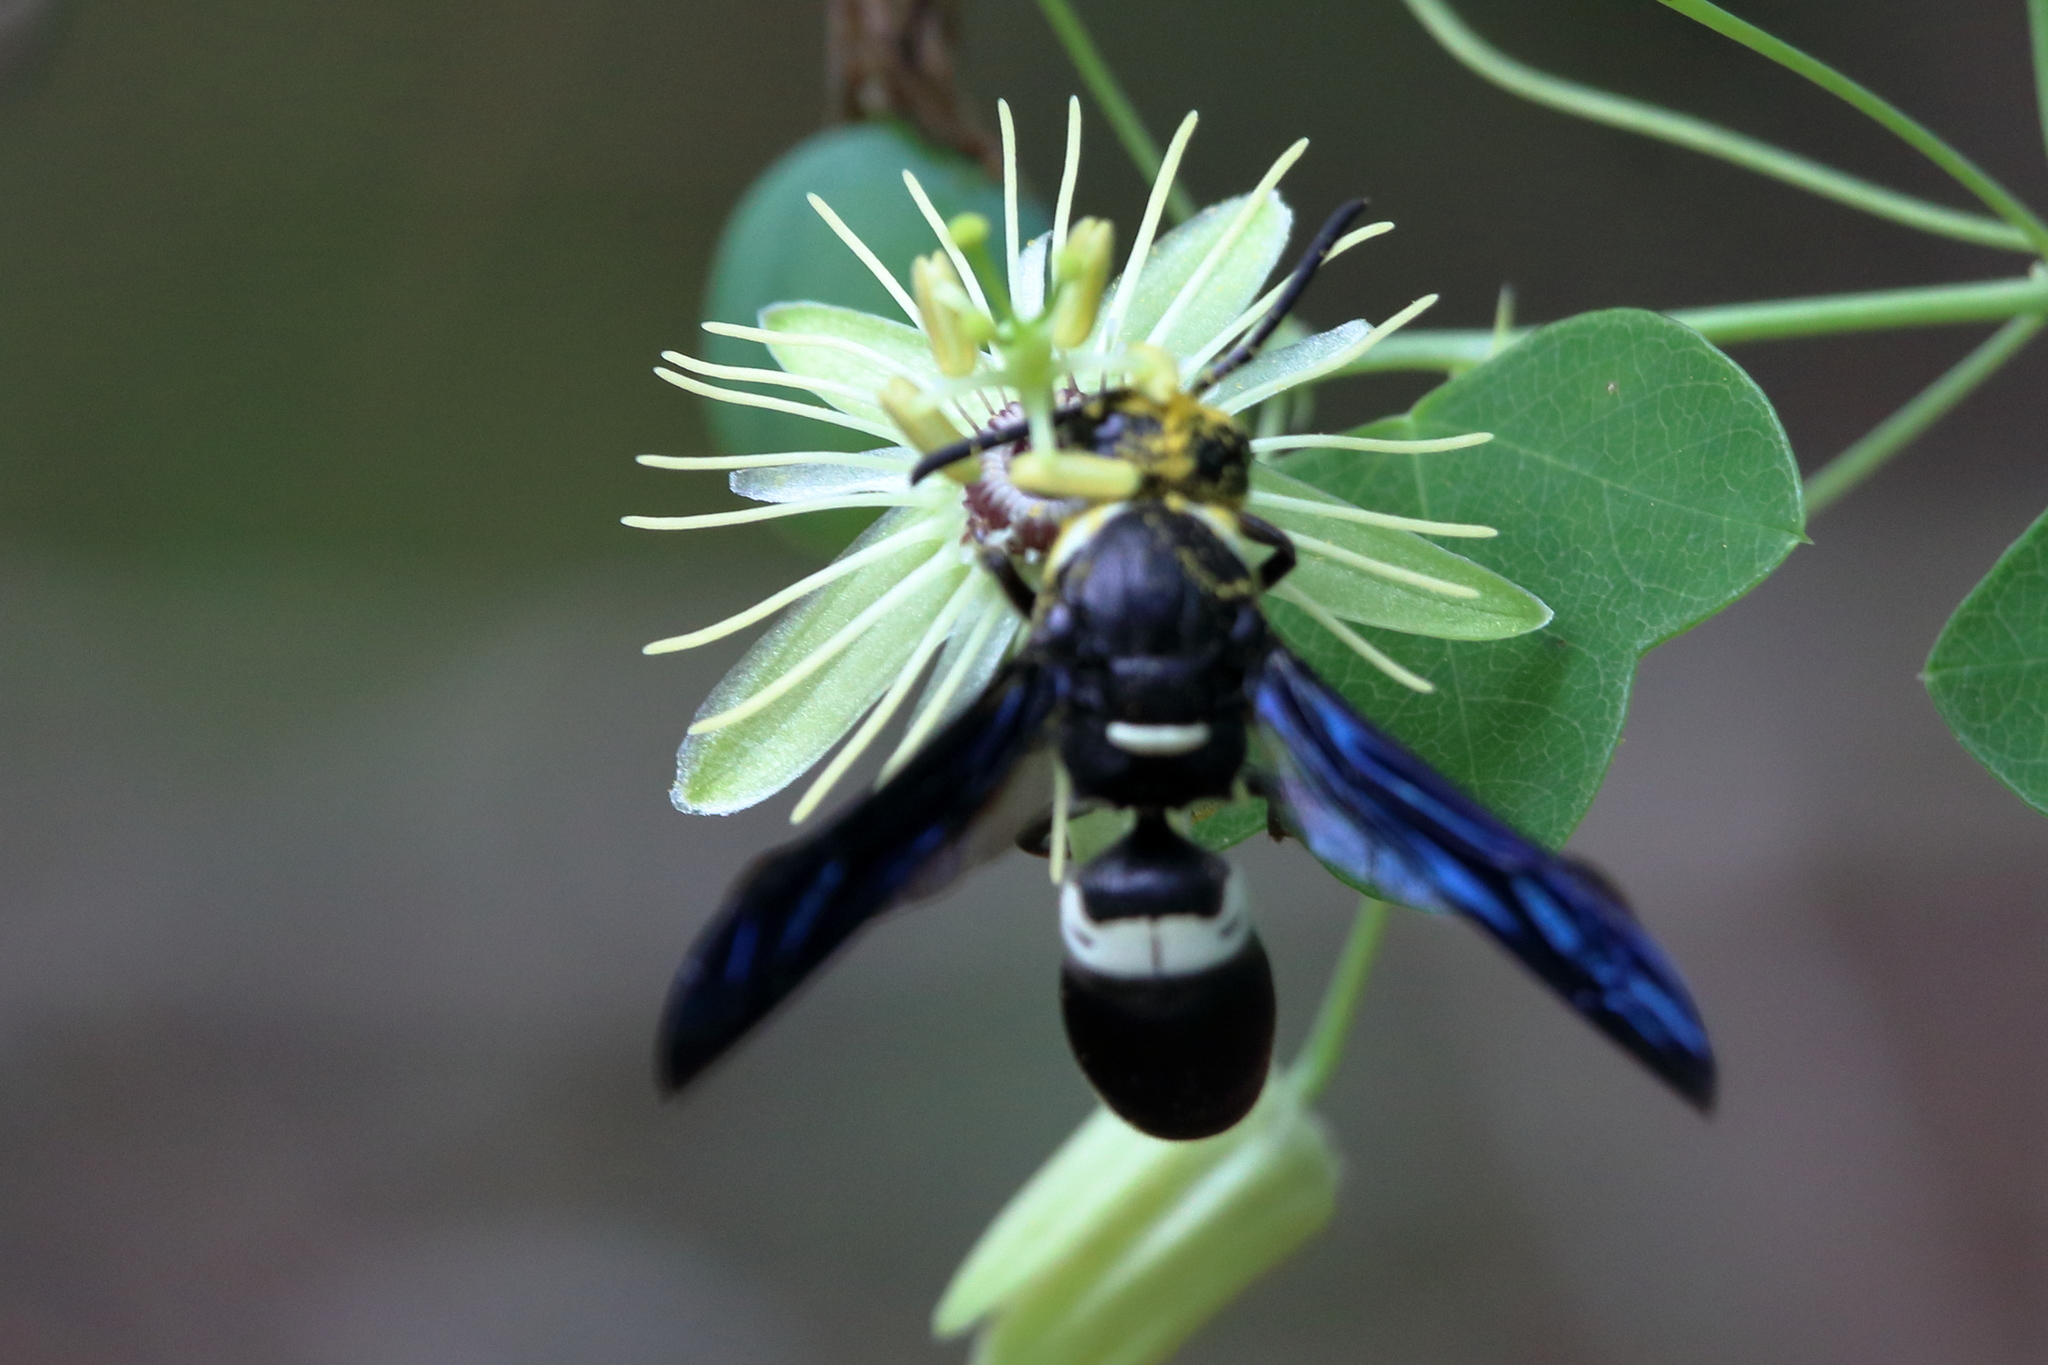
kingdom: Animalia
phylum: Arthropoda
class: Insecta
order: Hymenoptera
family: Eumenidae
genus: Monobia
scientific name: Monobia quadridens
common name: Four-toothed mason wasp
